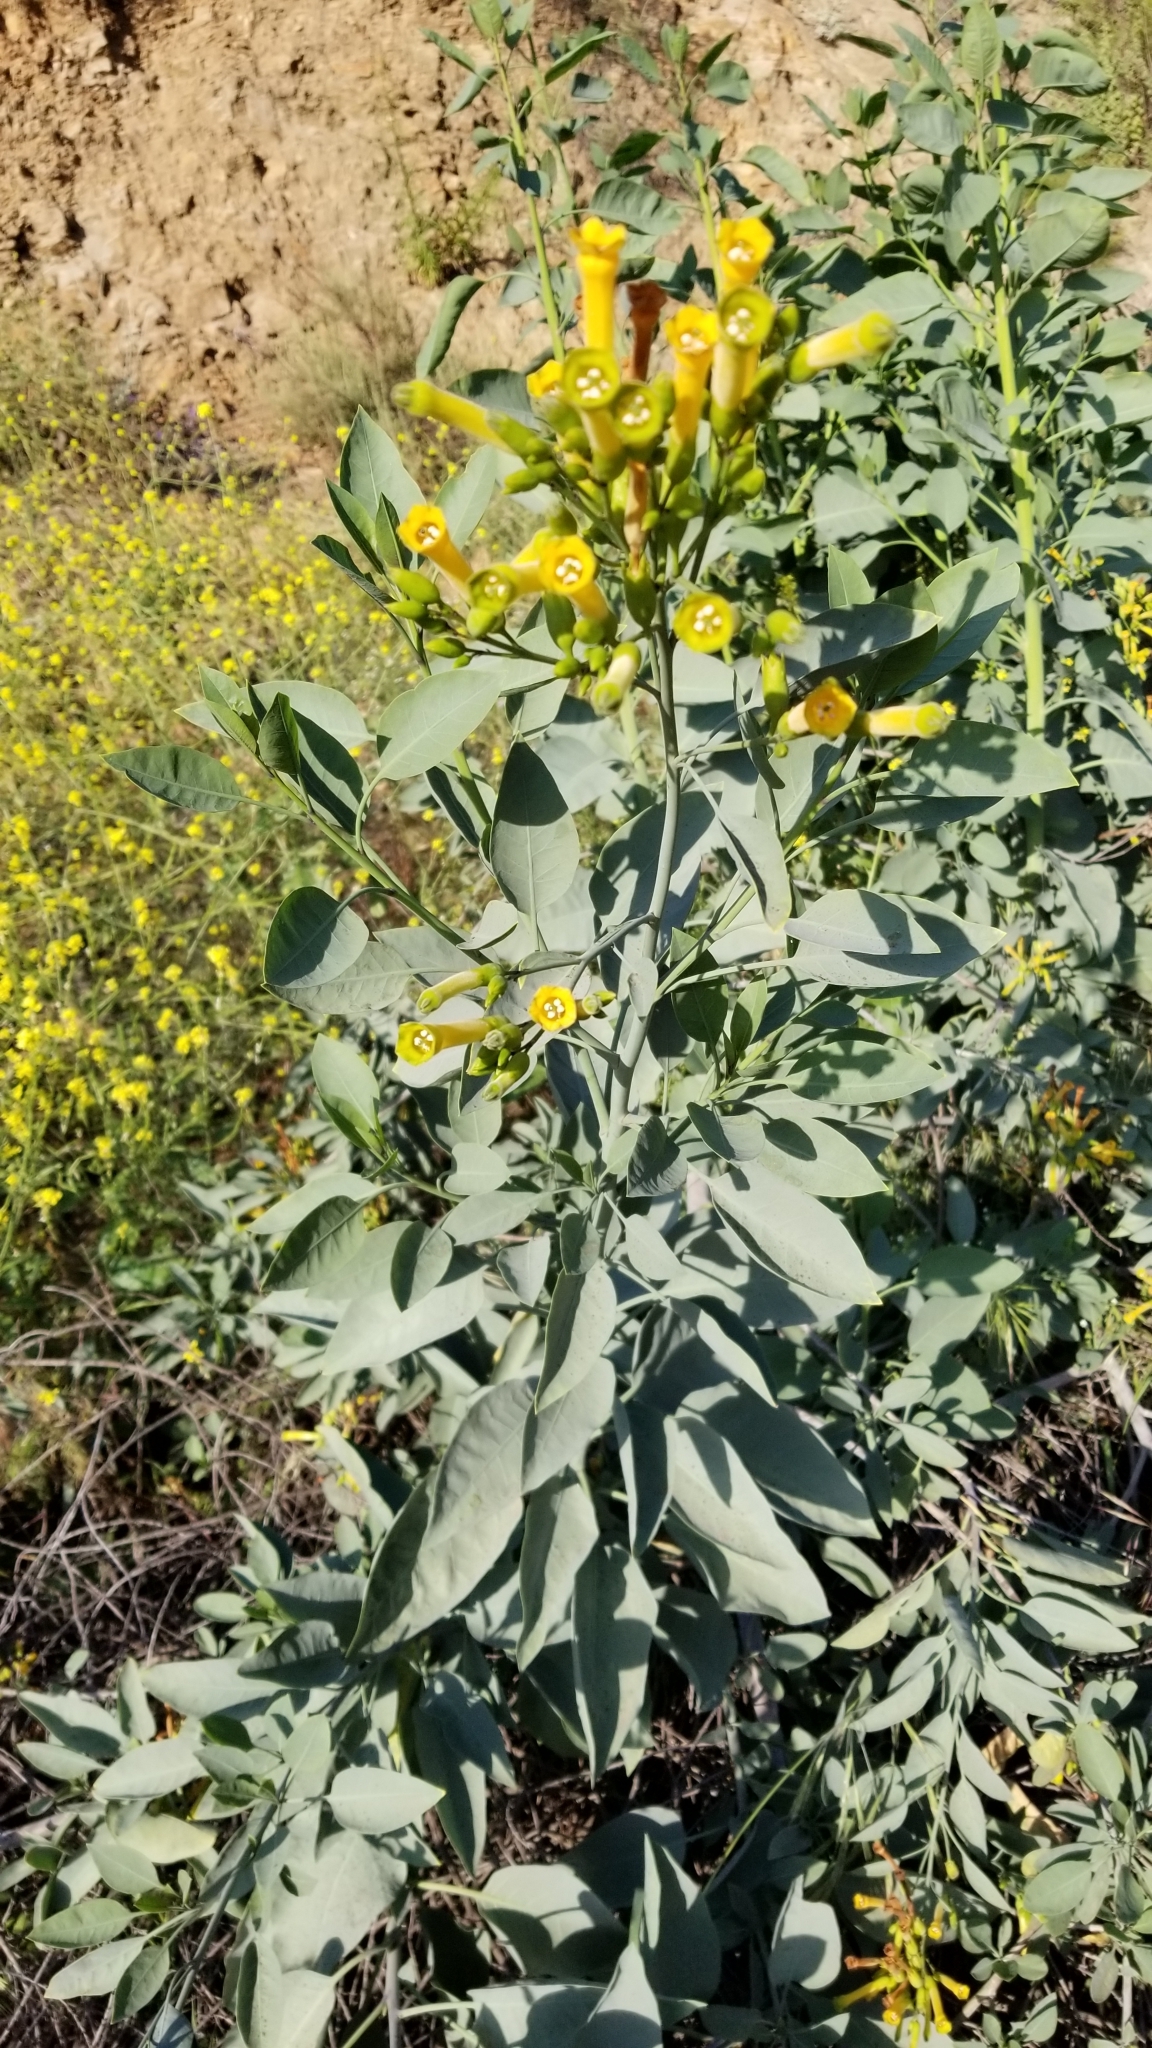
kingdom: Plantae
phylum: Tracheophyta
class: Magnoliopsida
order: Solanales
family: Solanaceae
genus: Nicotiana
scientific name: Nicotiana glauca
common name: Tree tobacco
